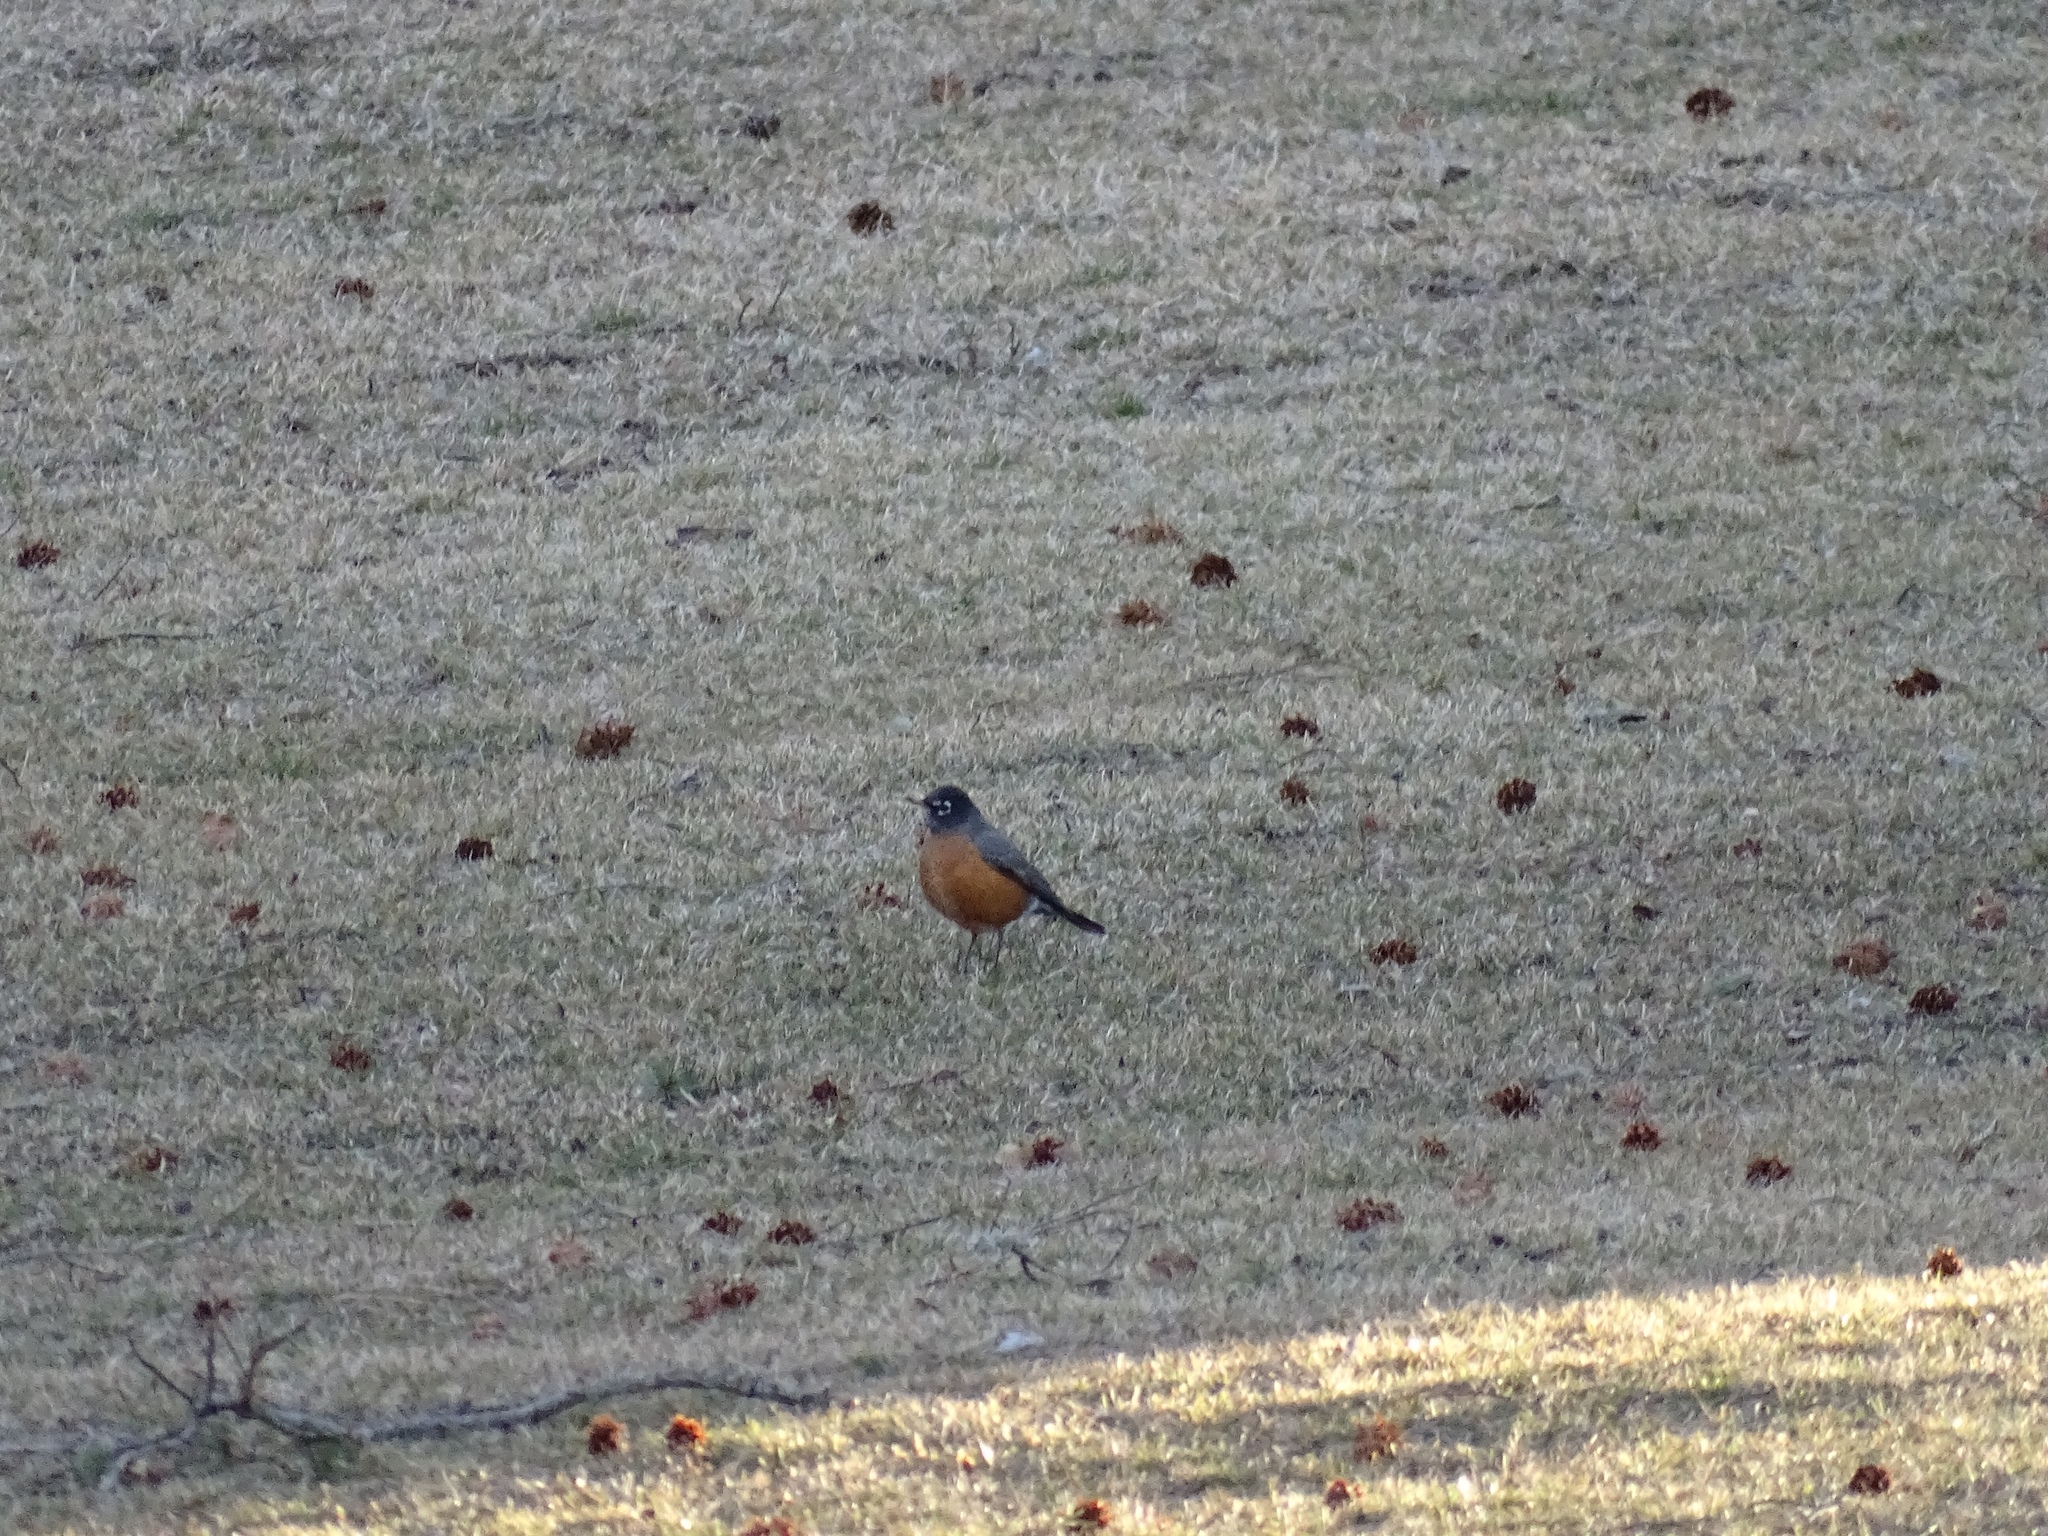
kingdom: Animalia
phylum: Chordata
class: Aves
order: Passeriformes
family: Turdidae
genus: Turdus
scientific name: Turdus migratorius
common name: American robin
